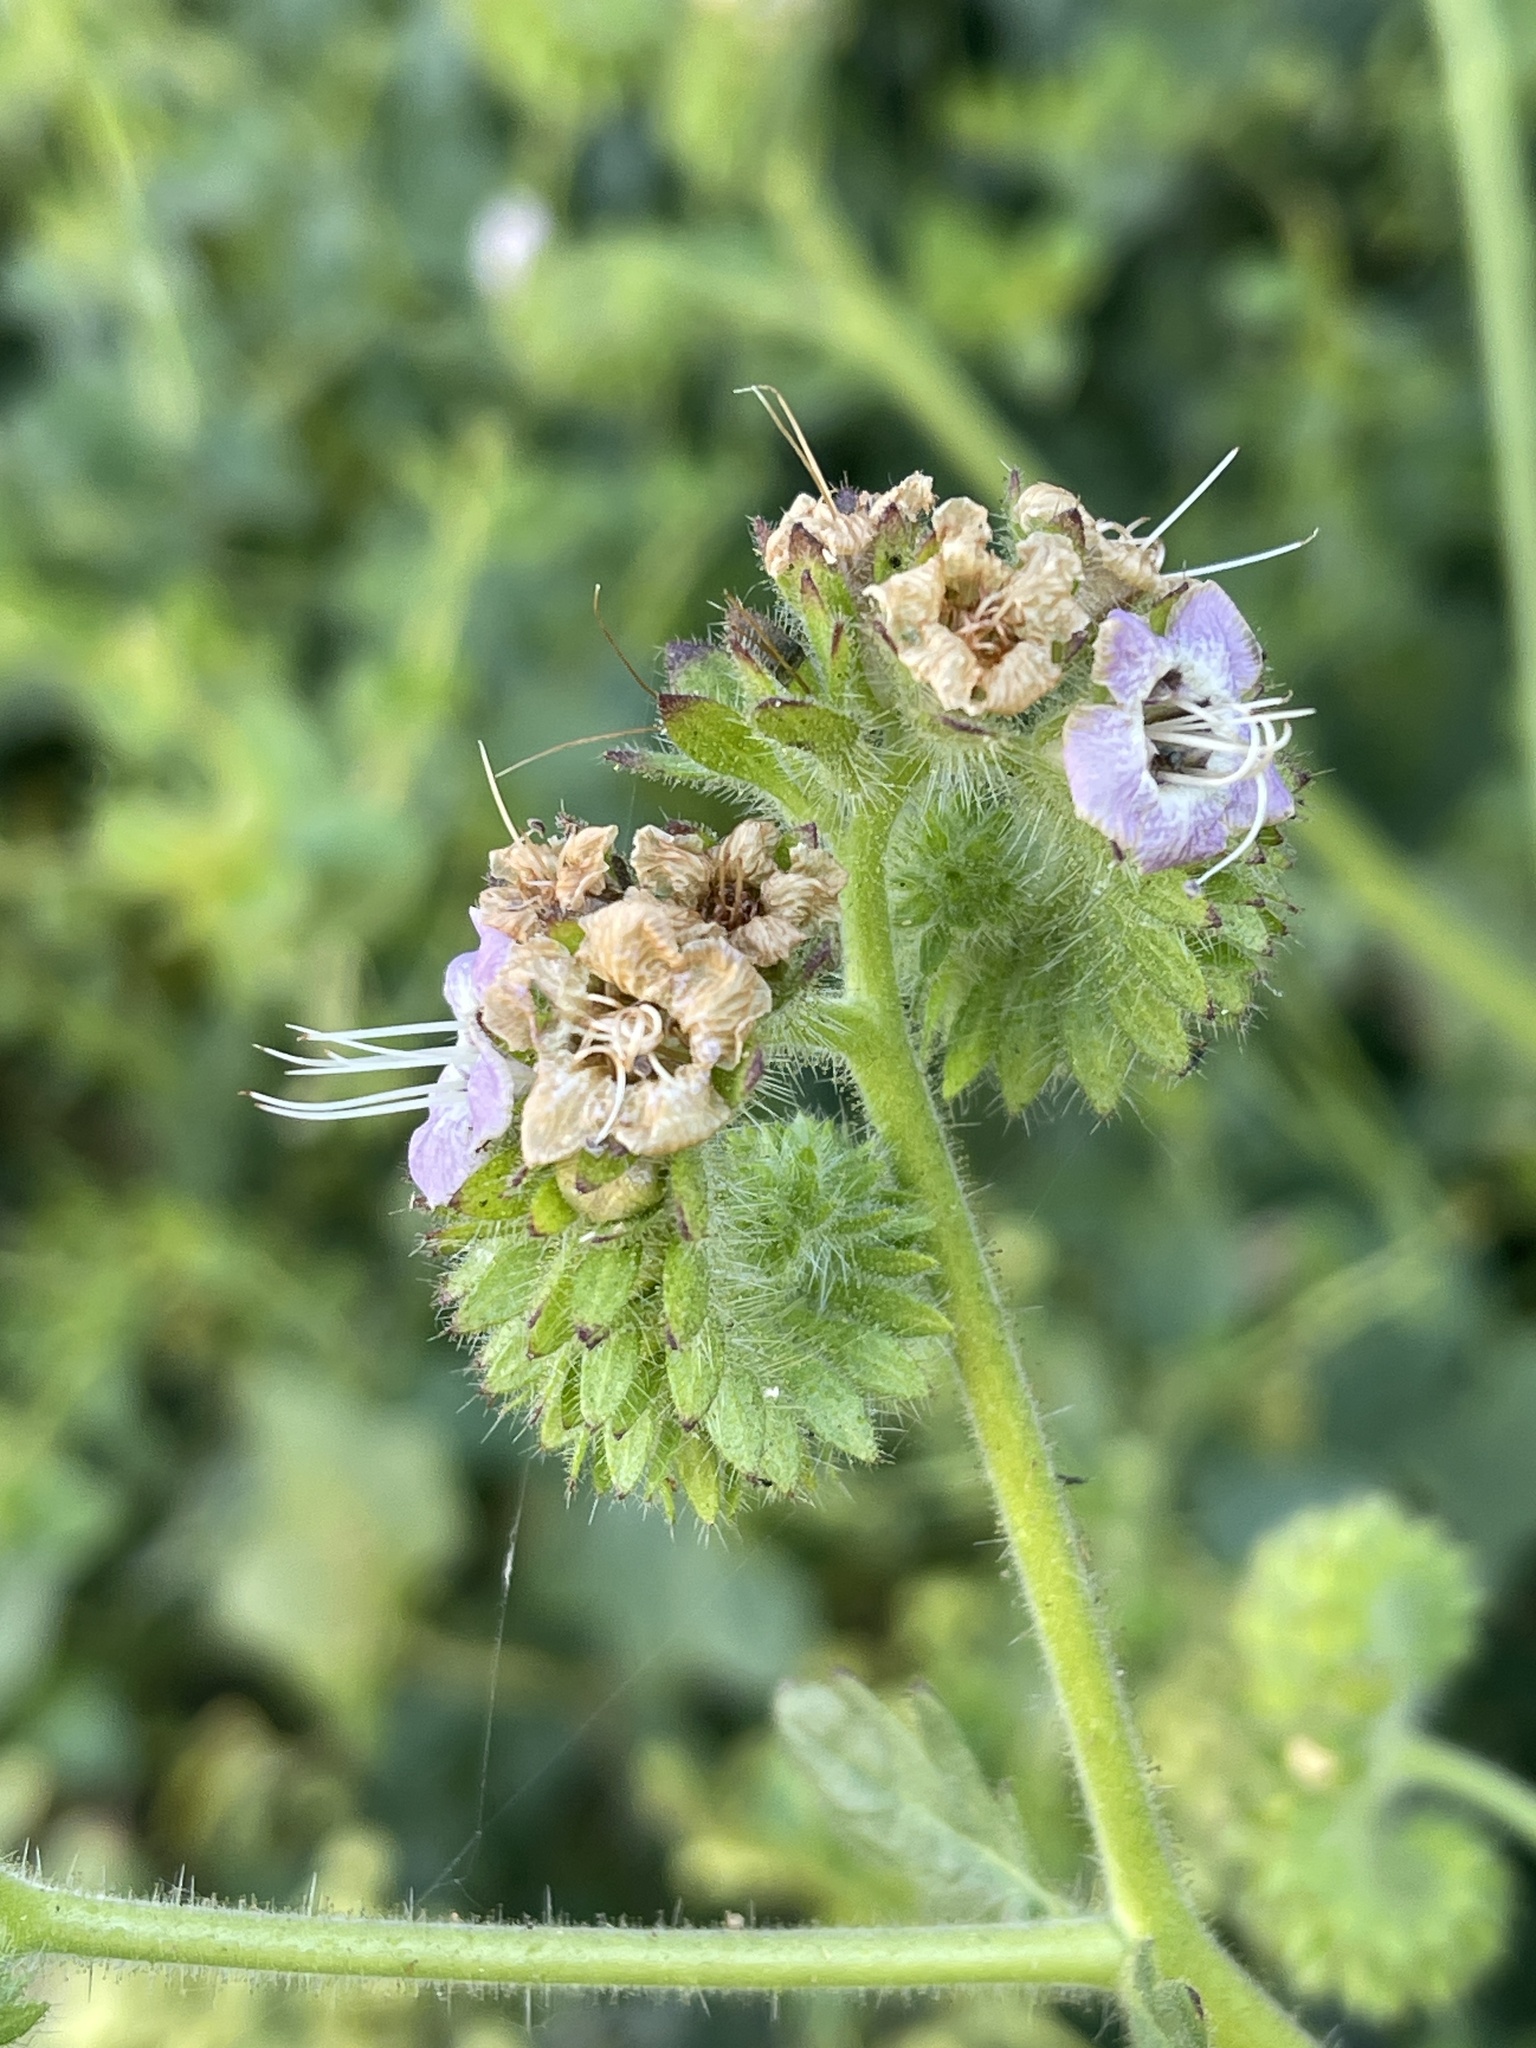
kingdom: Plantae
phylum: Tracheophyta
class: Magnoliopsida
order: Boraginales
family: Hydrophyllaceae
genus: Phacelia
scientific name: Phacelia ramosissima
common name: Branching phacelia
